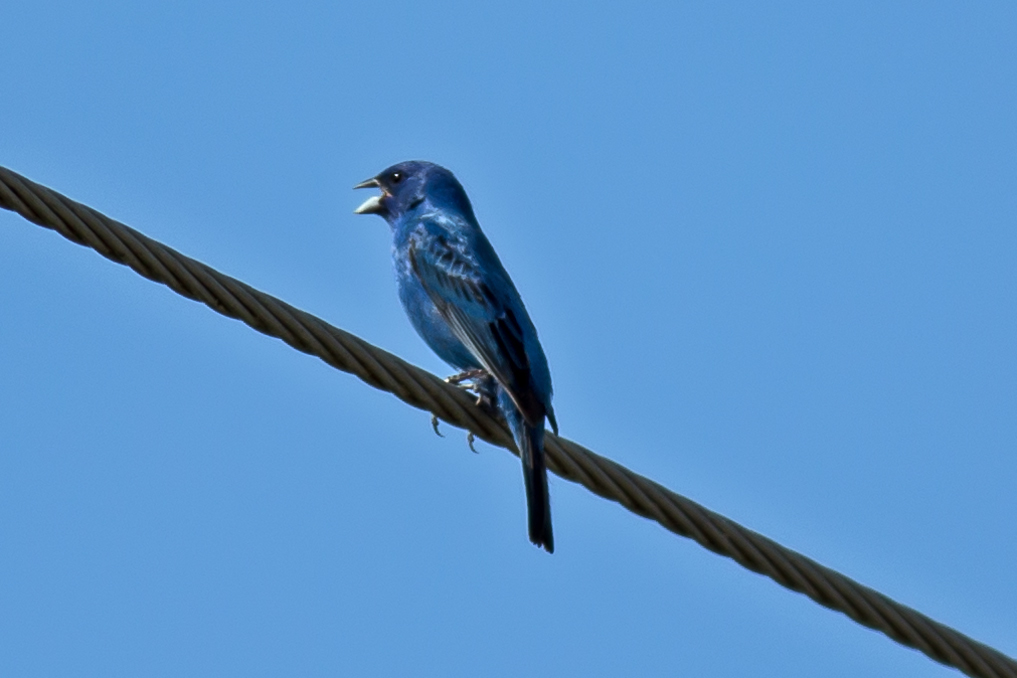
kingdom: Animalia
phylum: Chordata
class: Aves
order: Passeriformes
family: Cardinalidae
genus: Passerina
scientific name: Passerina cyanea
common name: Indigo bunting
